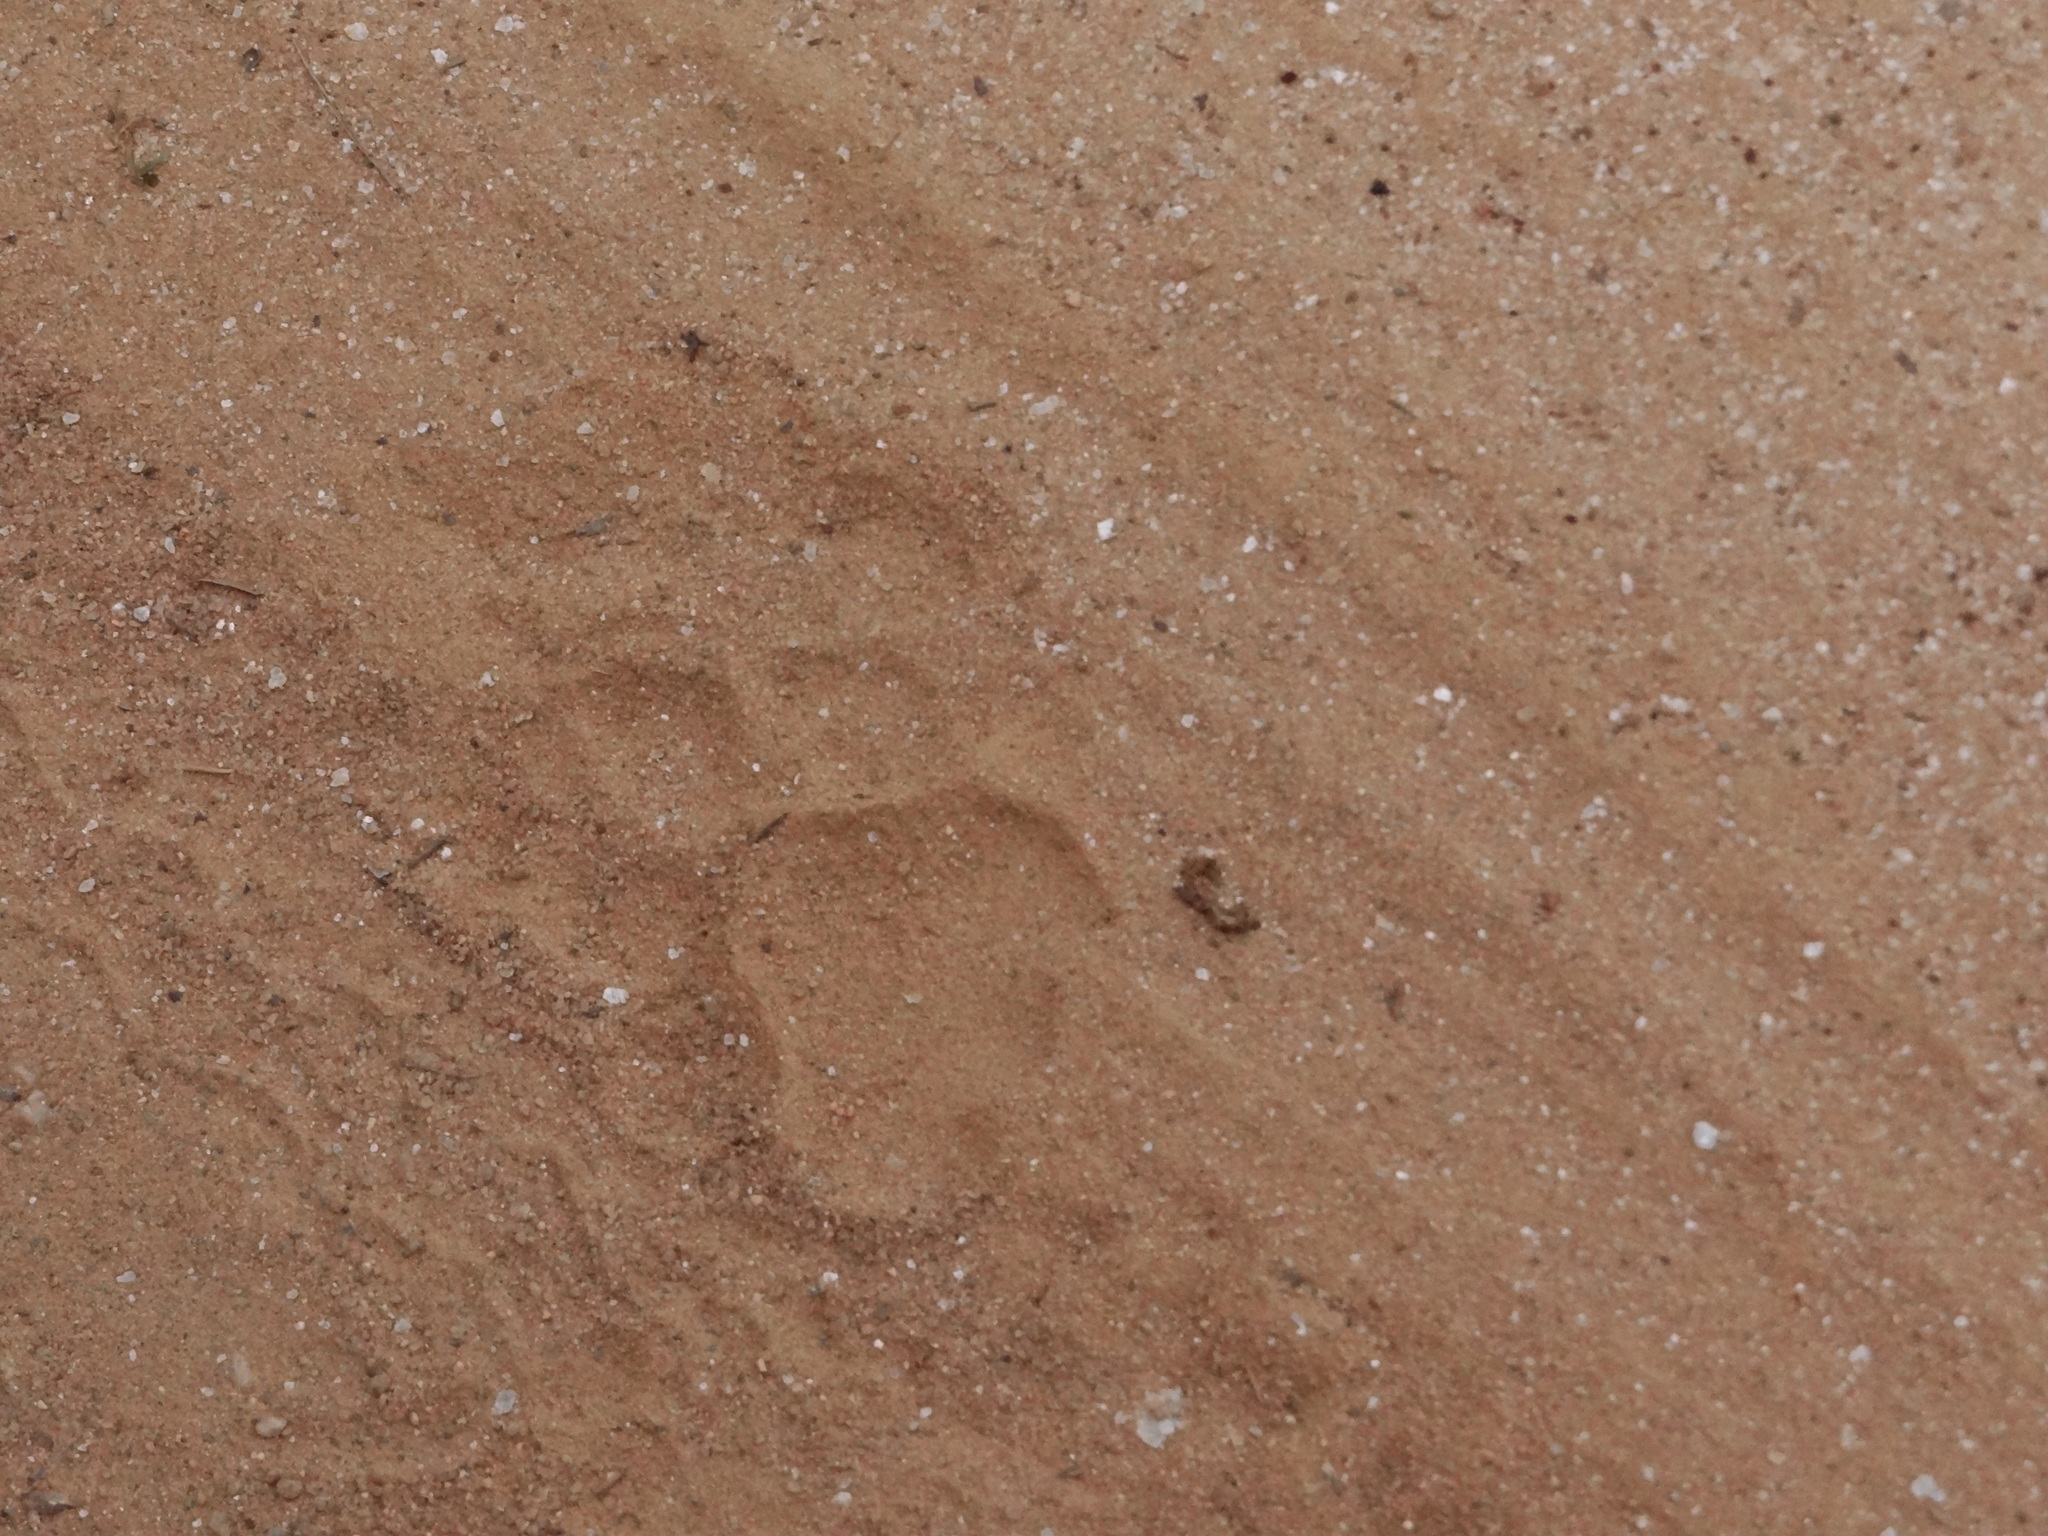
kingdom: Animalia
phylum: Chordata
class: Mammalia
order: Carnivora
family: Felidae
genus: Panthera
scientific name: Panthera tigris
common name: Tiger
